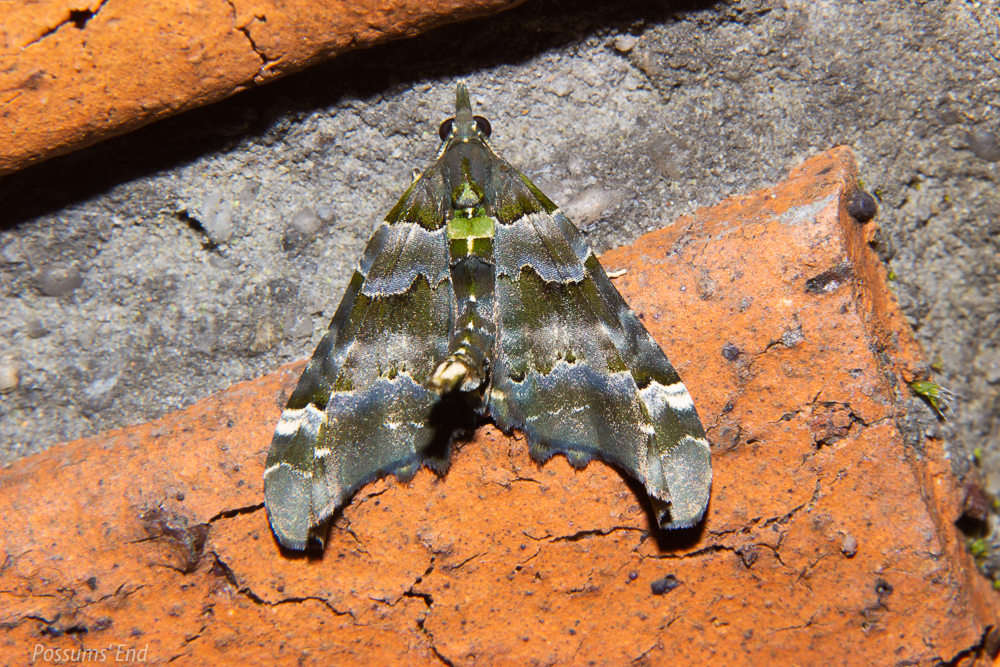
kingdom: Animalia
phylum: Arthropoda
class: Insecta
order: Lepidoptera
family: Geometridae
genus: Elvia
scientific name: Elvia glaucata
